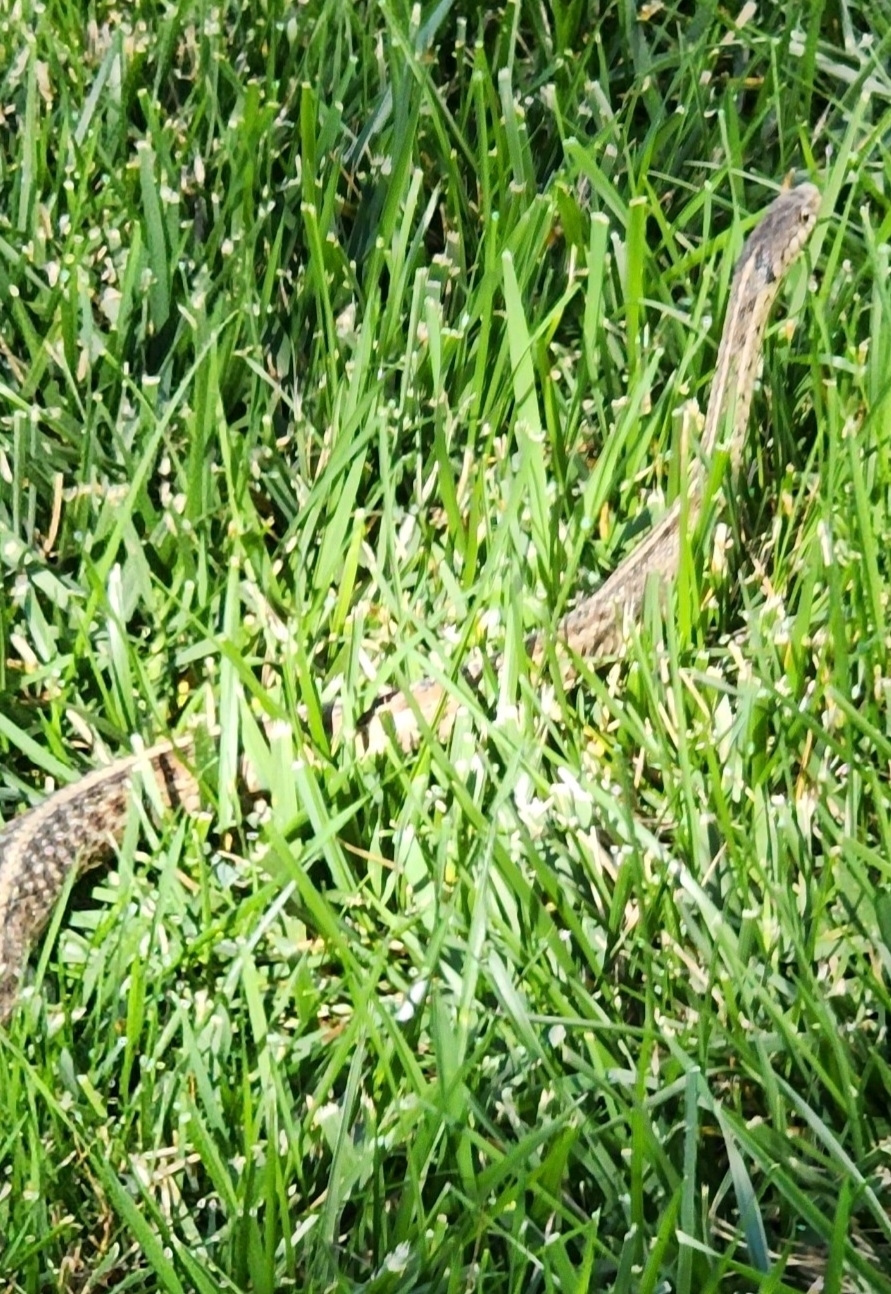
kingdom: Animalia
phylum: Chordata
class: Squamata
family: Colubridae
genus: Thamnophis
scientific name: Thamnophis sirtalis
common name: Common garter snake
